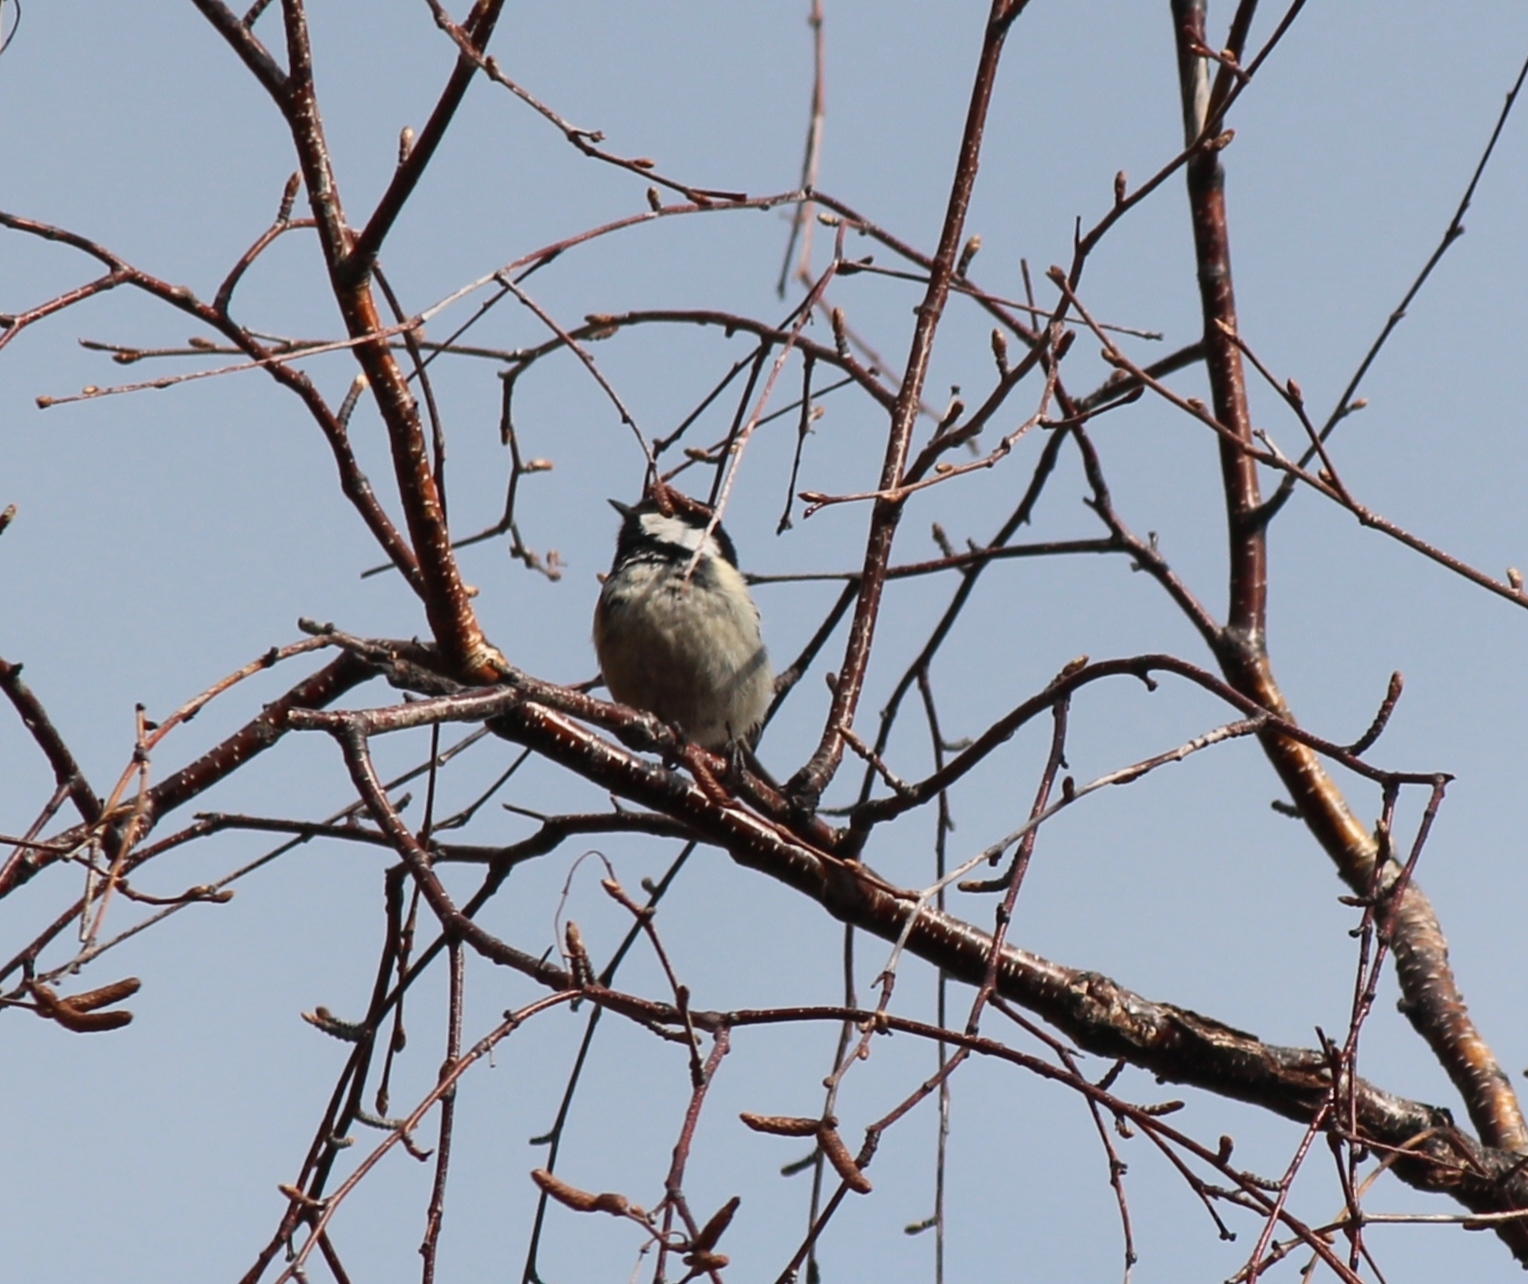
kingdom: Animalia
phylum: Chordata
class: Aves
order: Passeriformes
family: Paridae
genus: Periparus
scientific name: Periparus ater
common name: Coal tit
